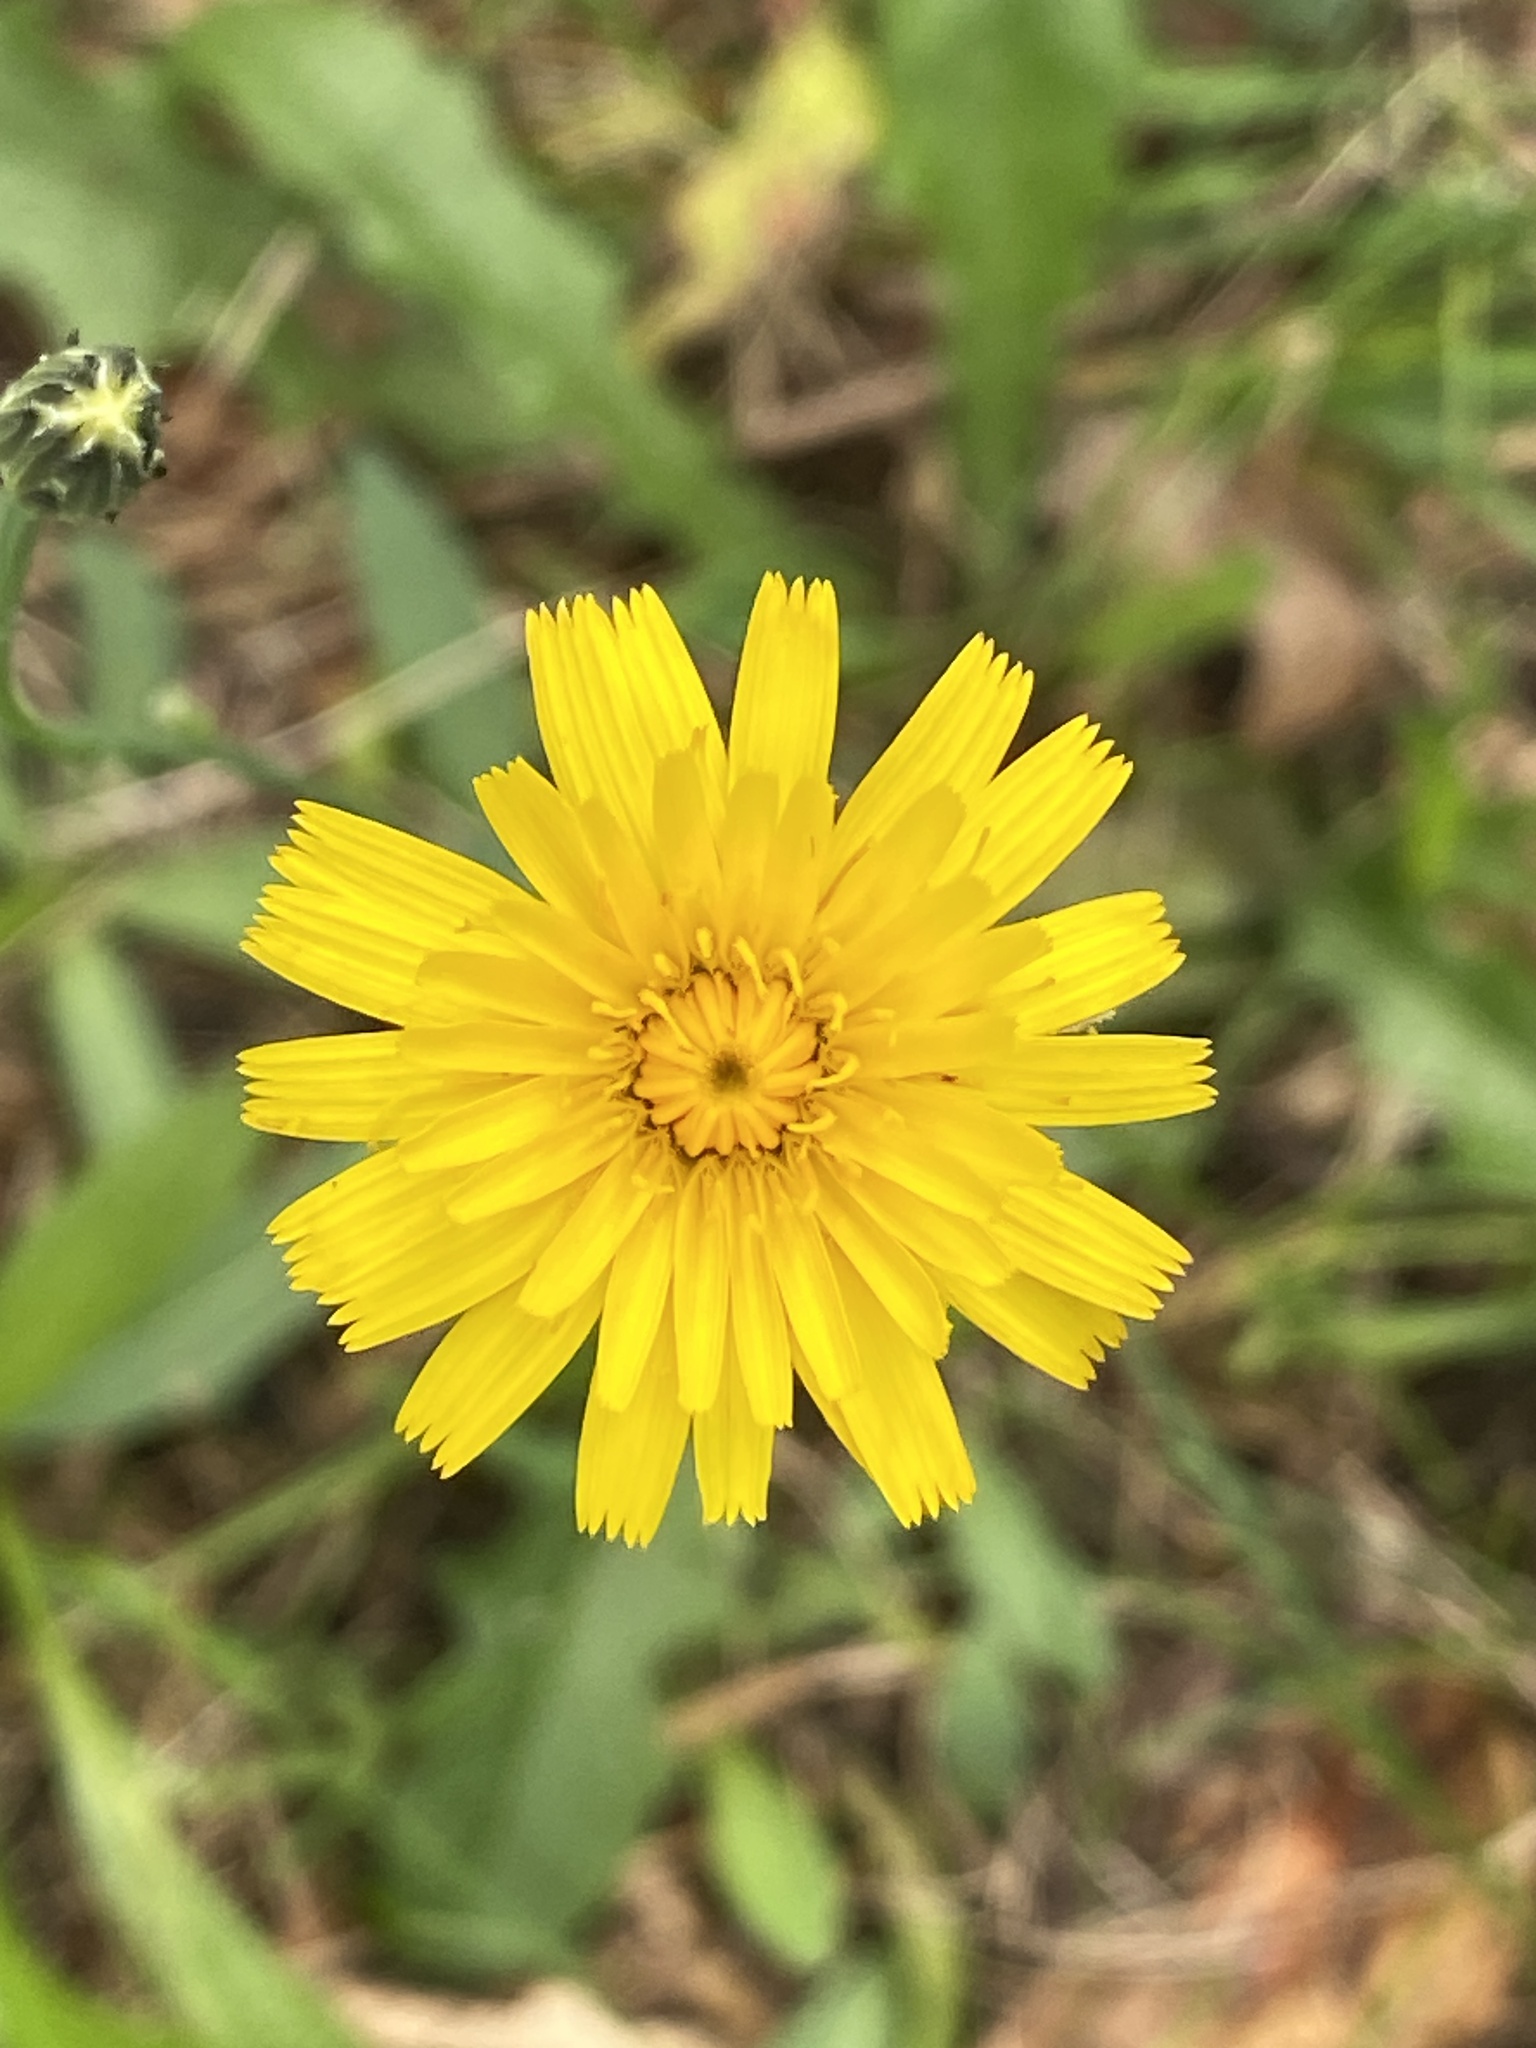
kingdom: Plantae
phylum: Tracheophyta
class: Magnoliopsida
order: Asterales
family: Asteraceae
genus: Hypochaeris
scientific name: Hypochaeris radicata
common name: Flatweed
